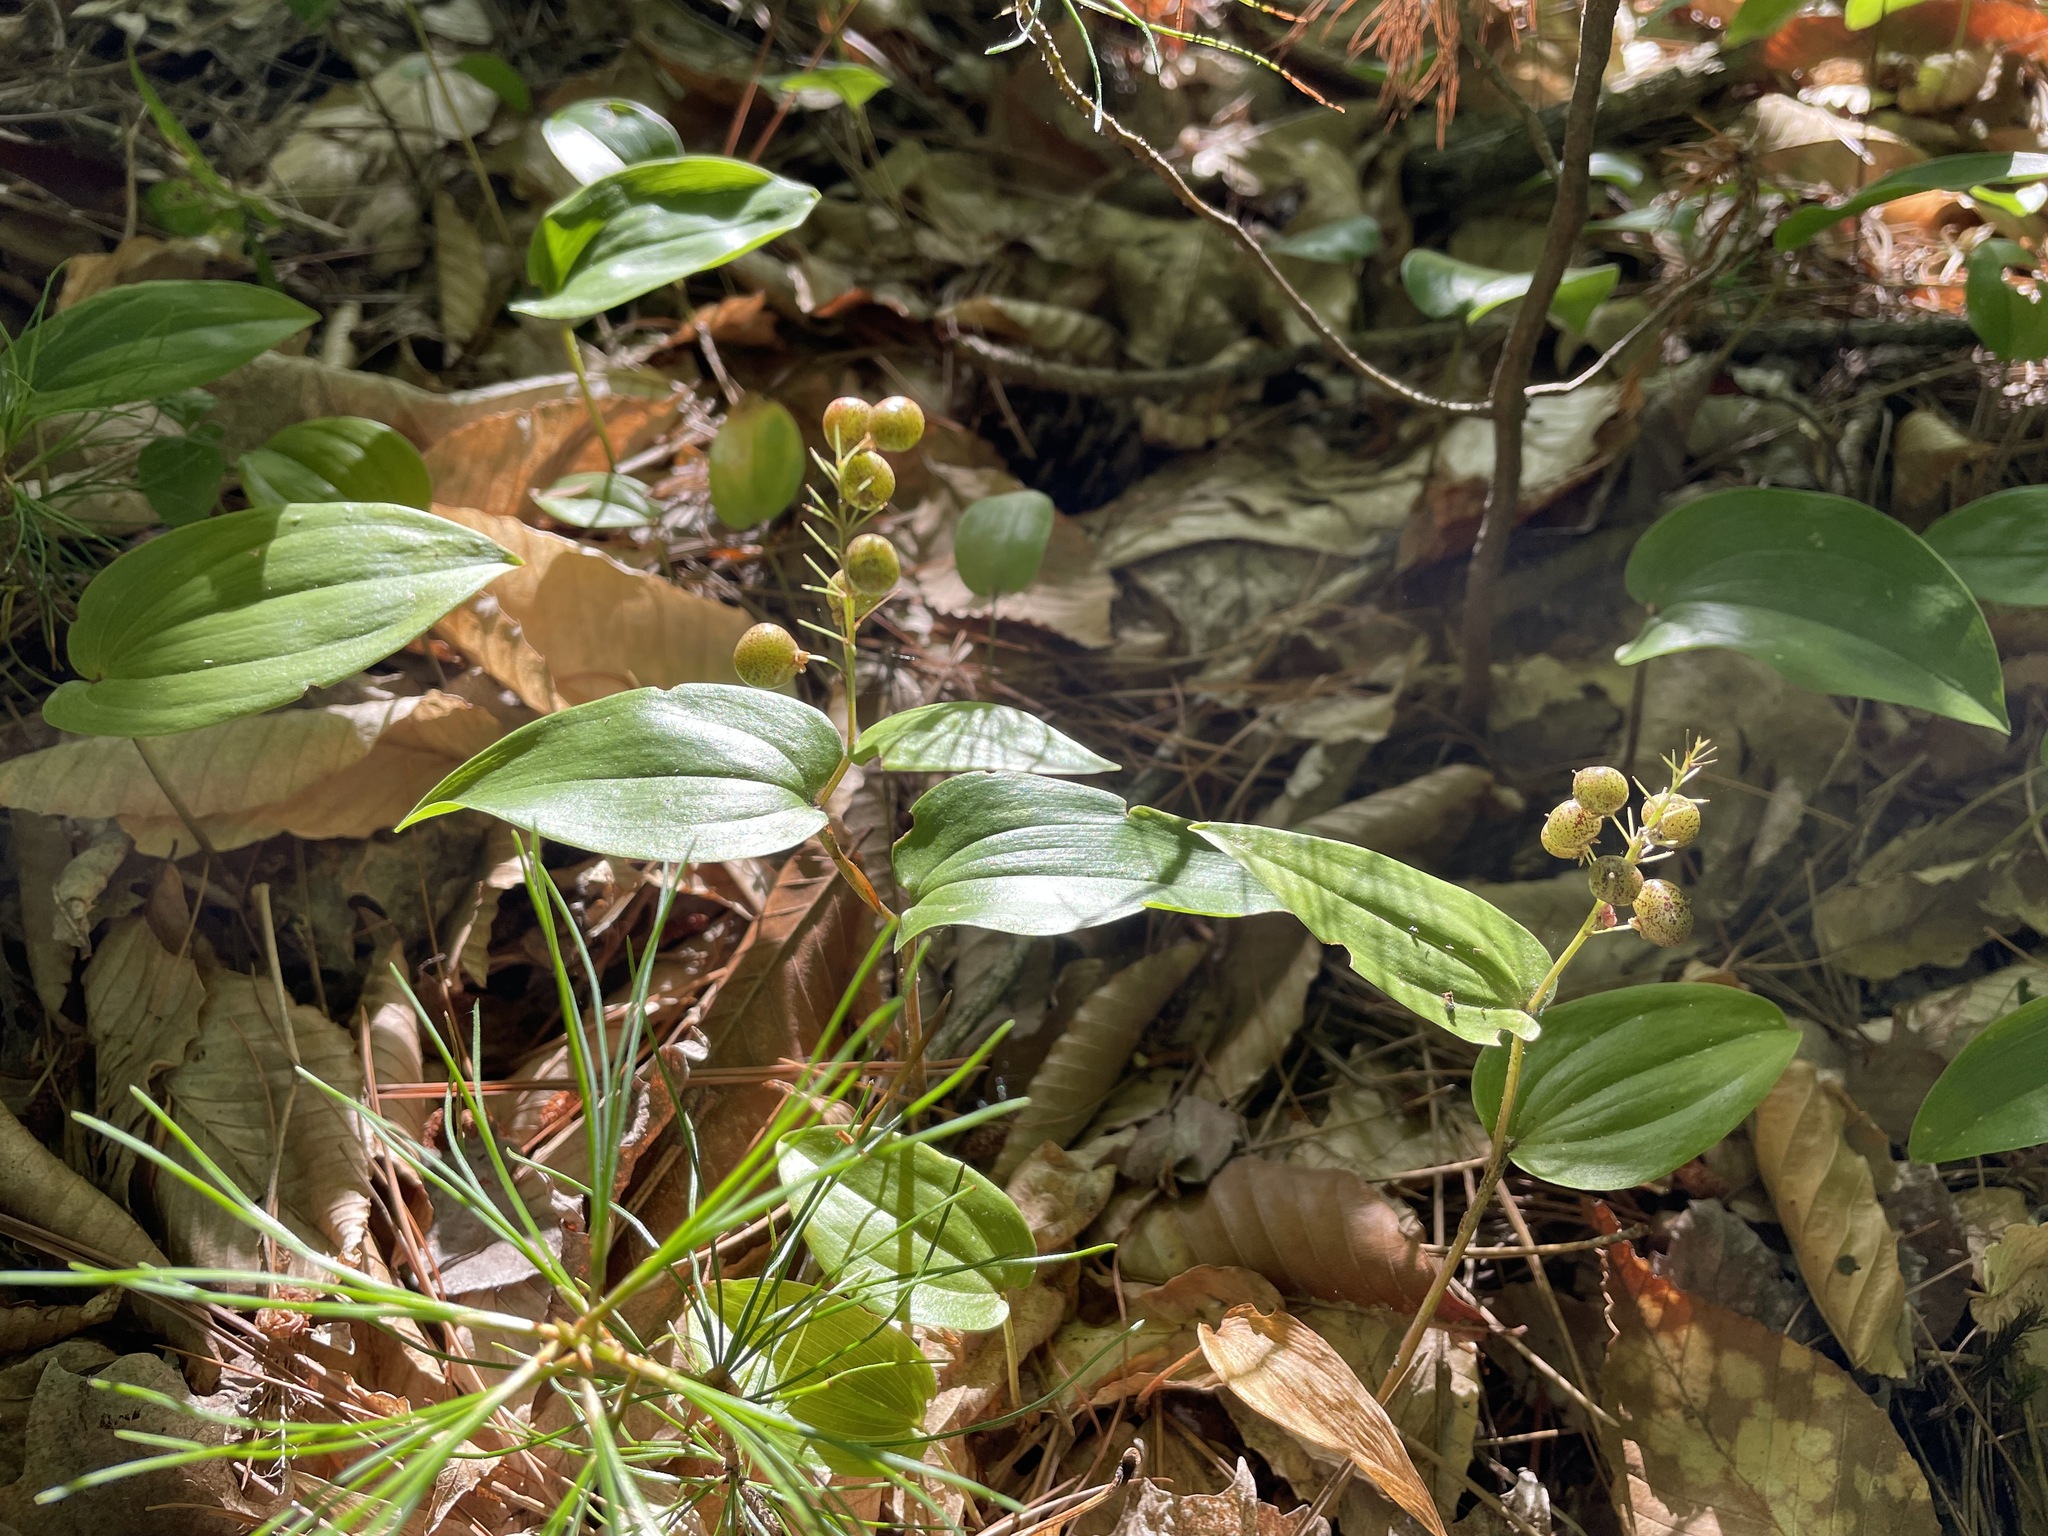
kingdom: Plantae
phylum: Tracheophyta
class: Liliopsida
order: Asparagales
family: Asparagaceae
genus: Maianthemum
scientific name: Maianthemum canadense
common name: False lily-of-the-valley
